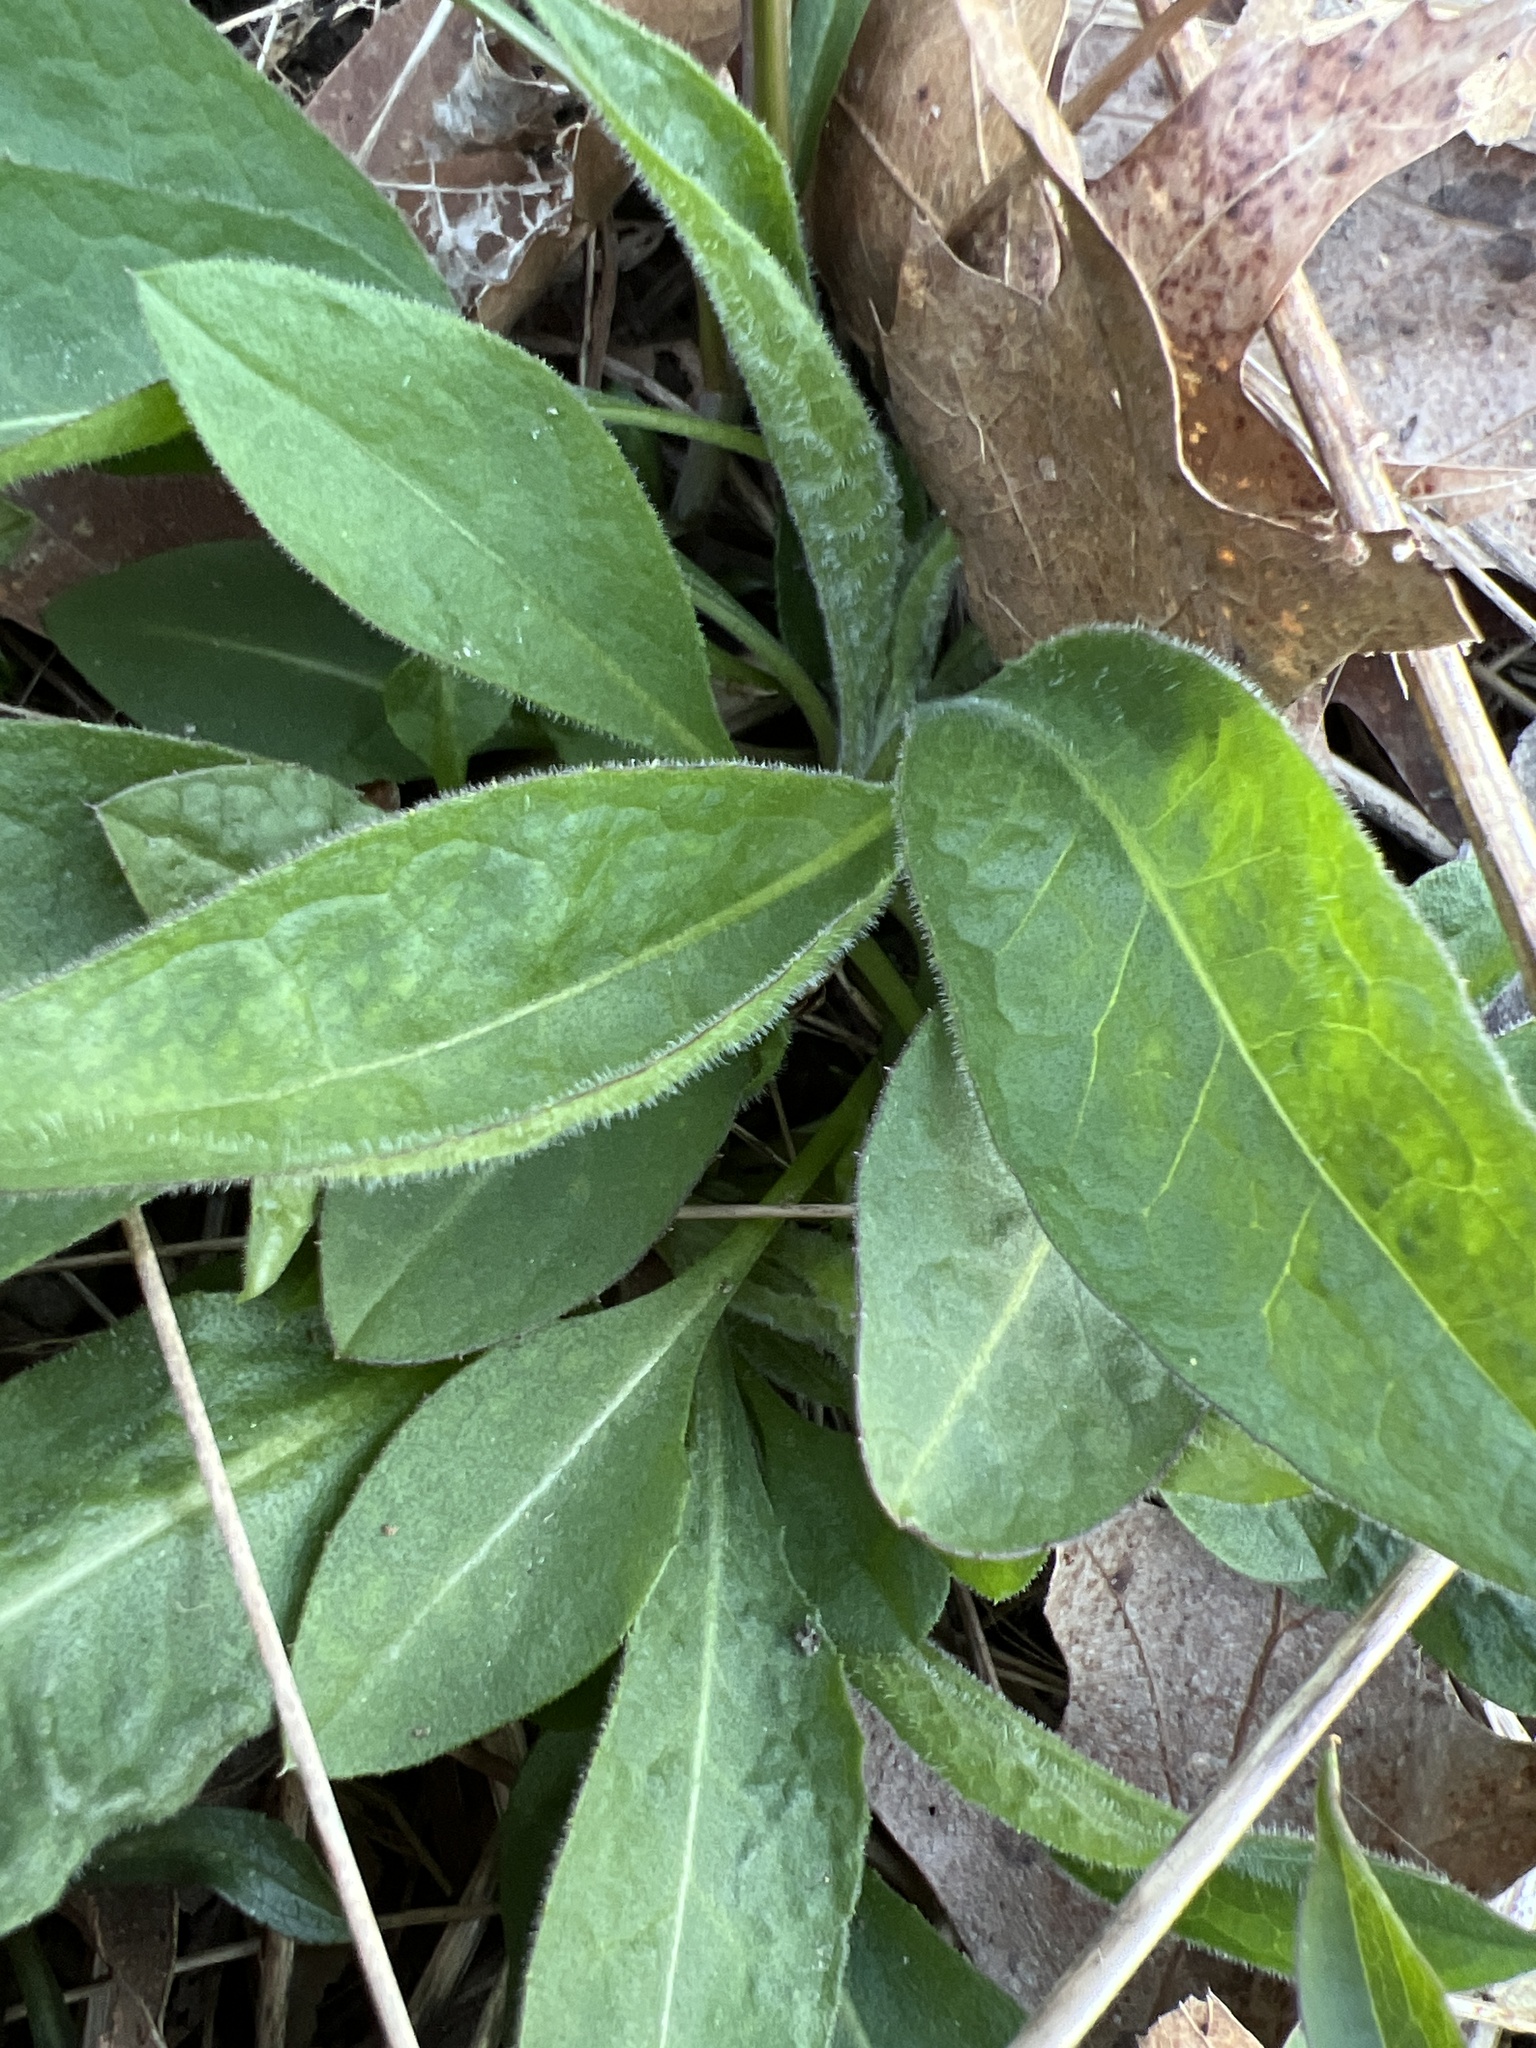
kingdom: Plantae
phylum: Tracheophyta
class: Magnoliopsida
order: Brassicales
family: Brassicaceae
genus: Hesperis
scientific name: Hesperis matronalis
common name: Dame's-violet
